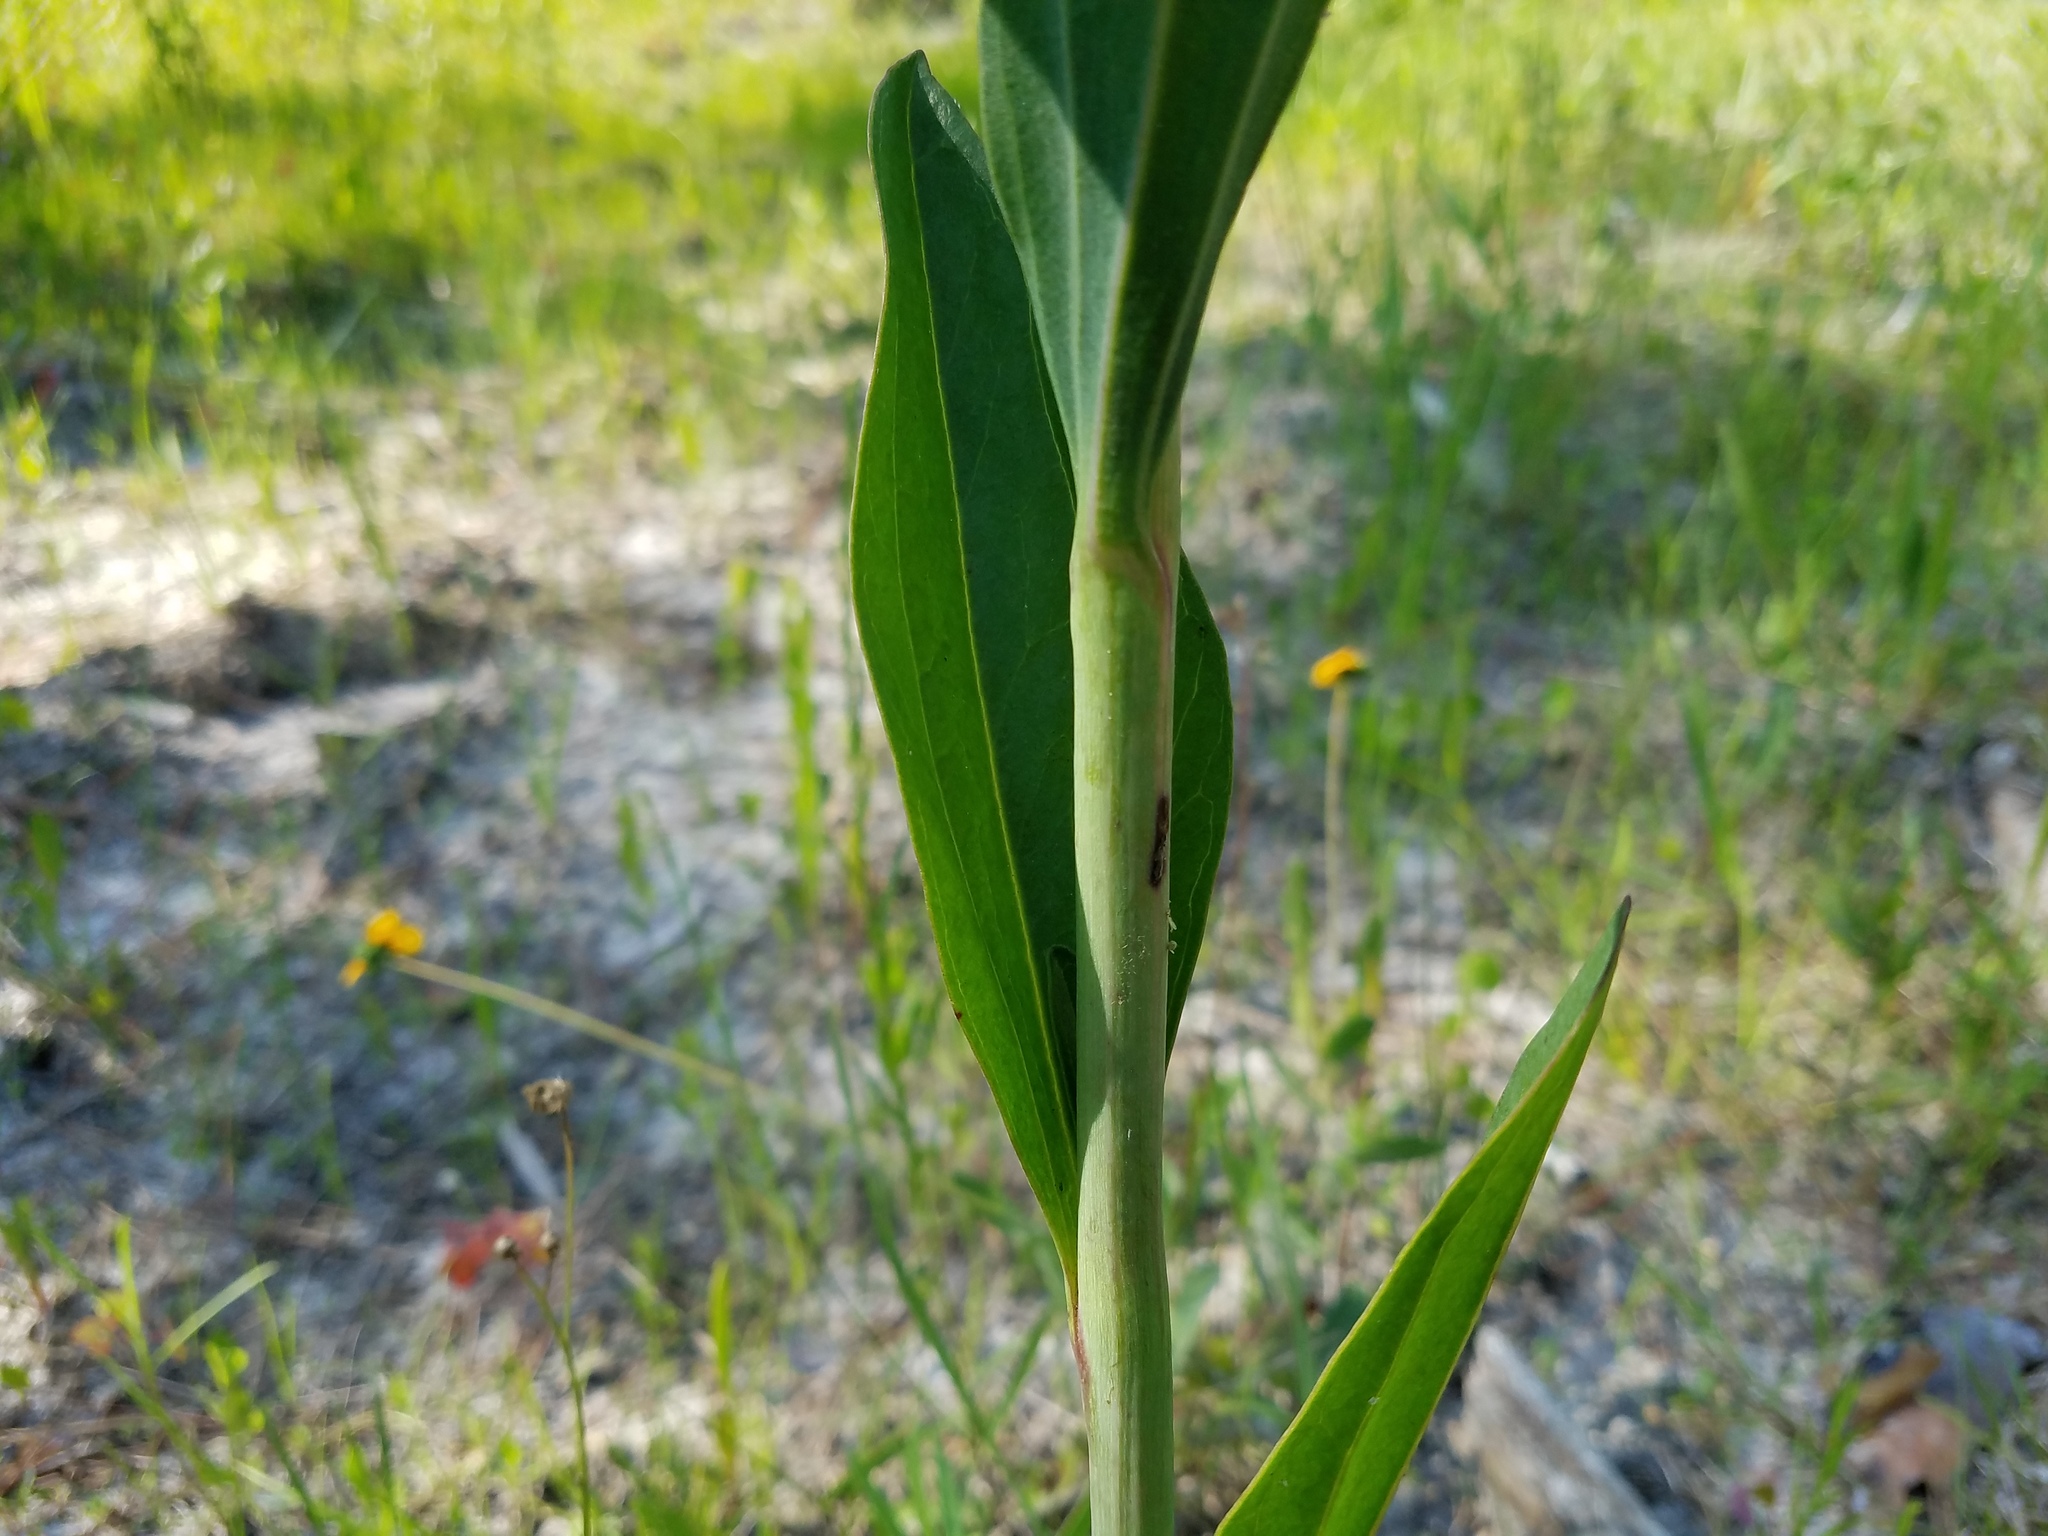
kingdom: Plantae
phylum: Tracheophyta
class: Magnoliopsida
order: Asterales
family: Asteraceae
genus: Arnoglossum
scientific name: Arnoglossum ovatum
